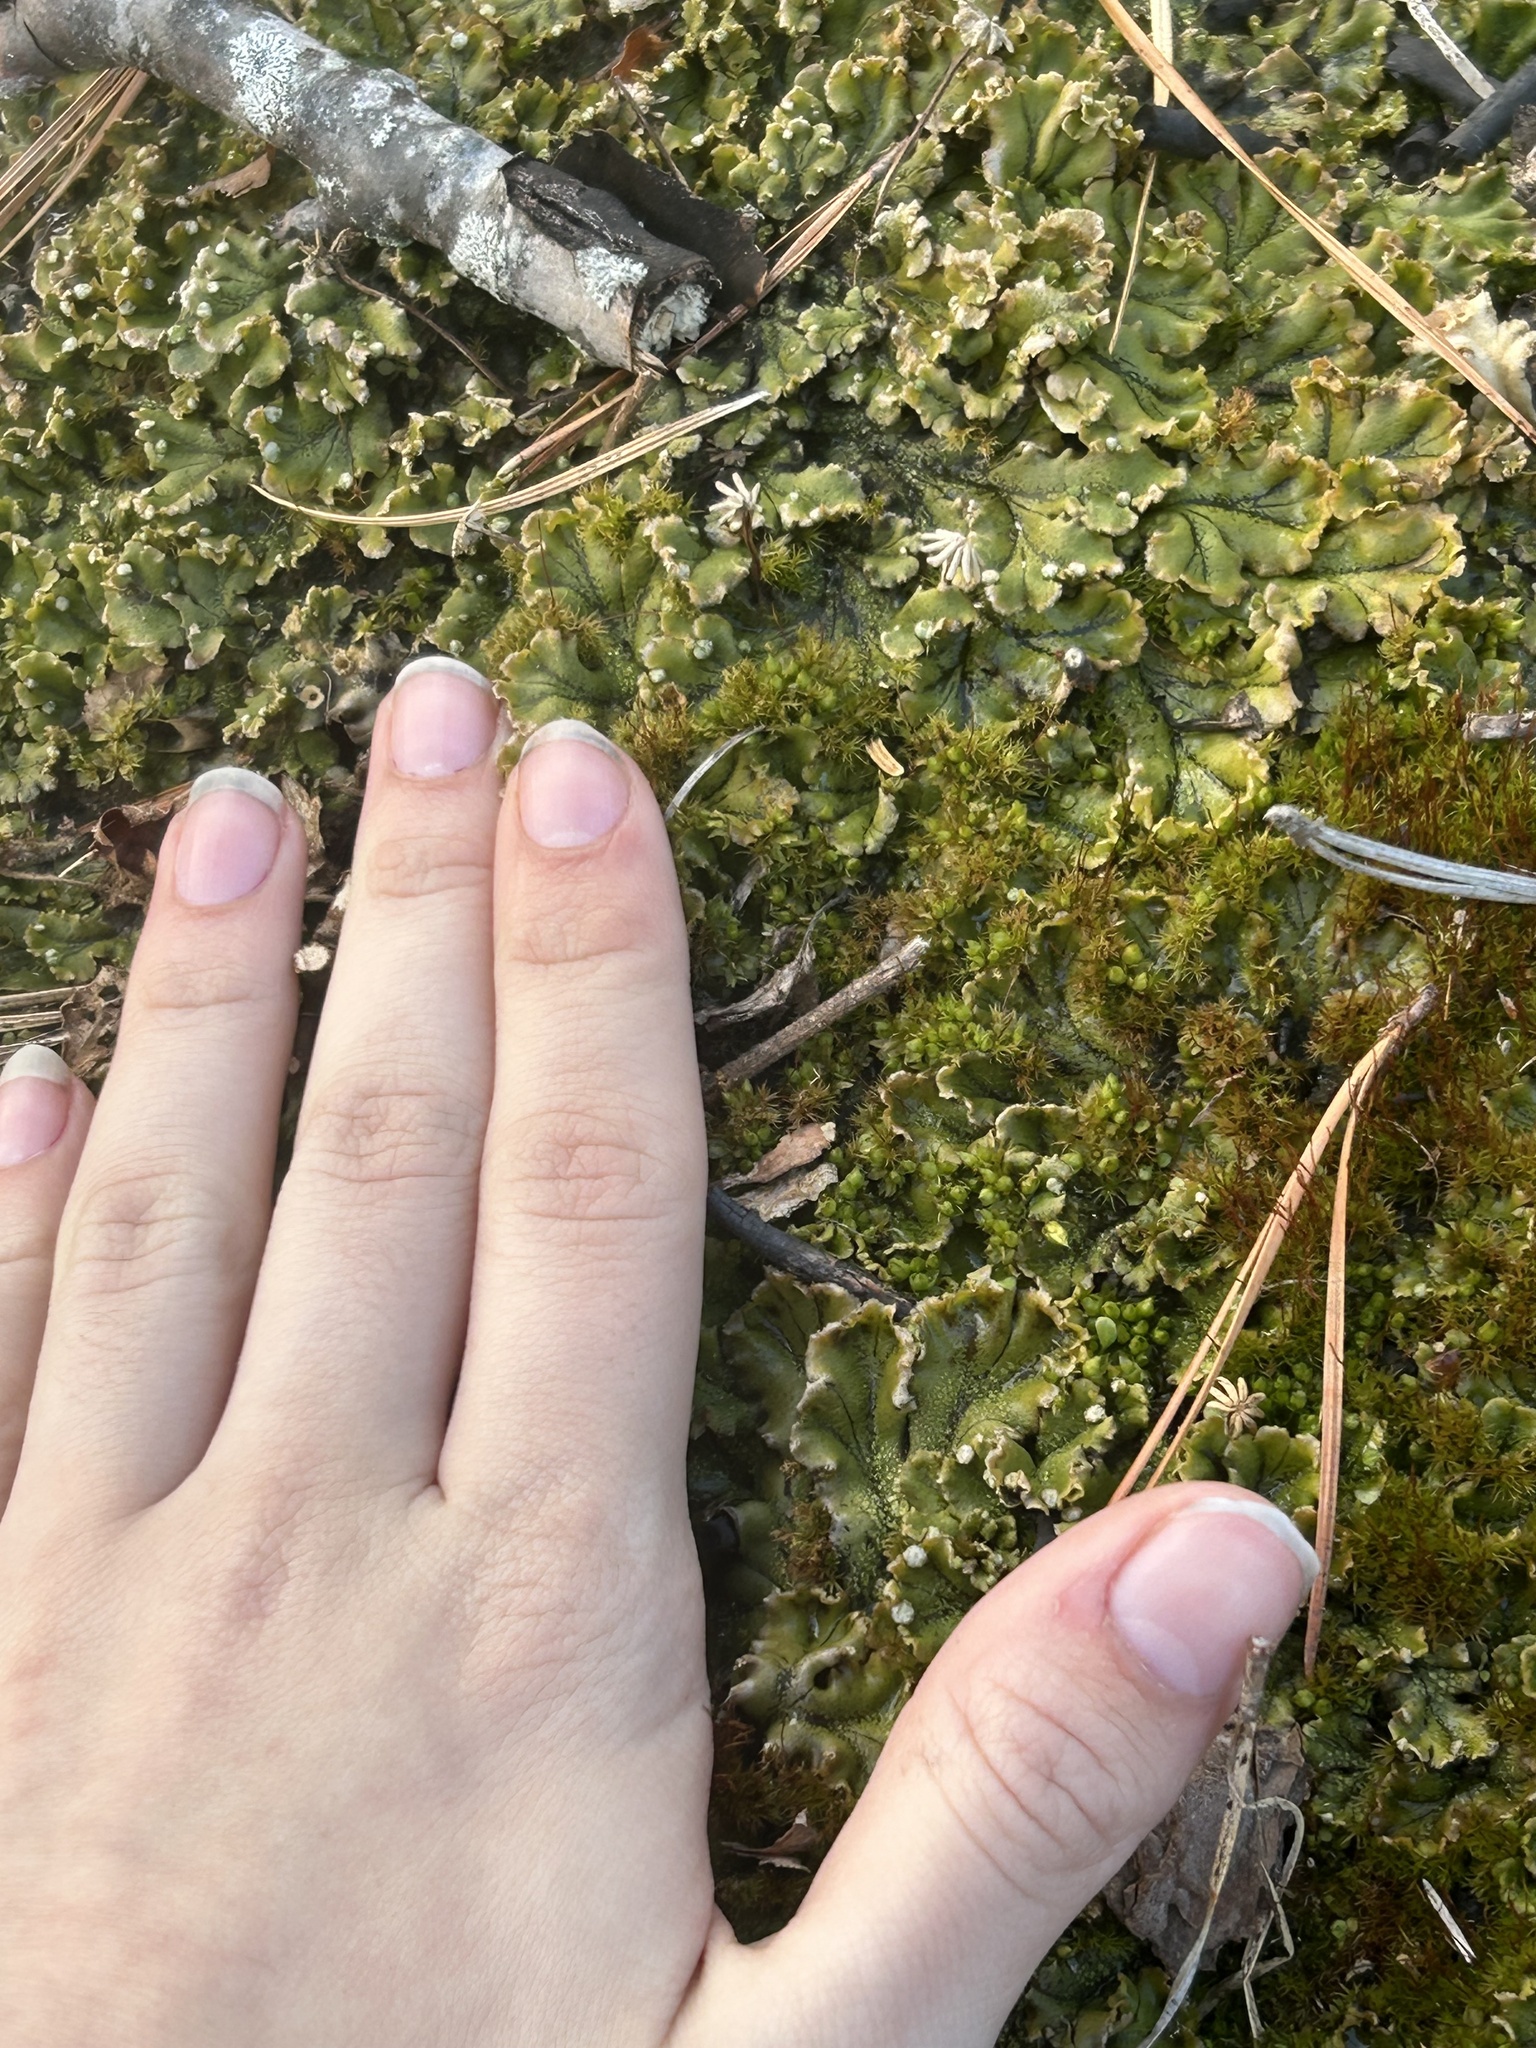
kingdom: Plantae
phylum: Marchantiophyta
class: Marchantiopsida
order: Marchantiales
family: Marchantiaceae
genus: Marchantia
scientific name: Marchantia polymorpha
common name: Common liverwort
